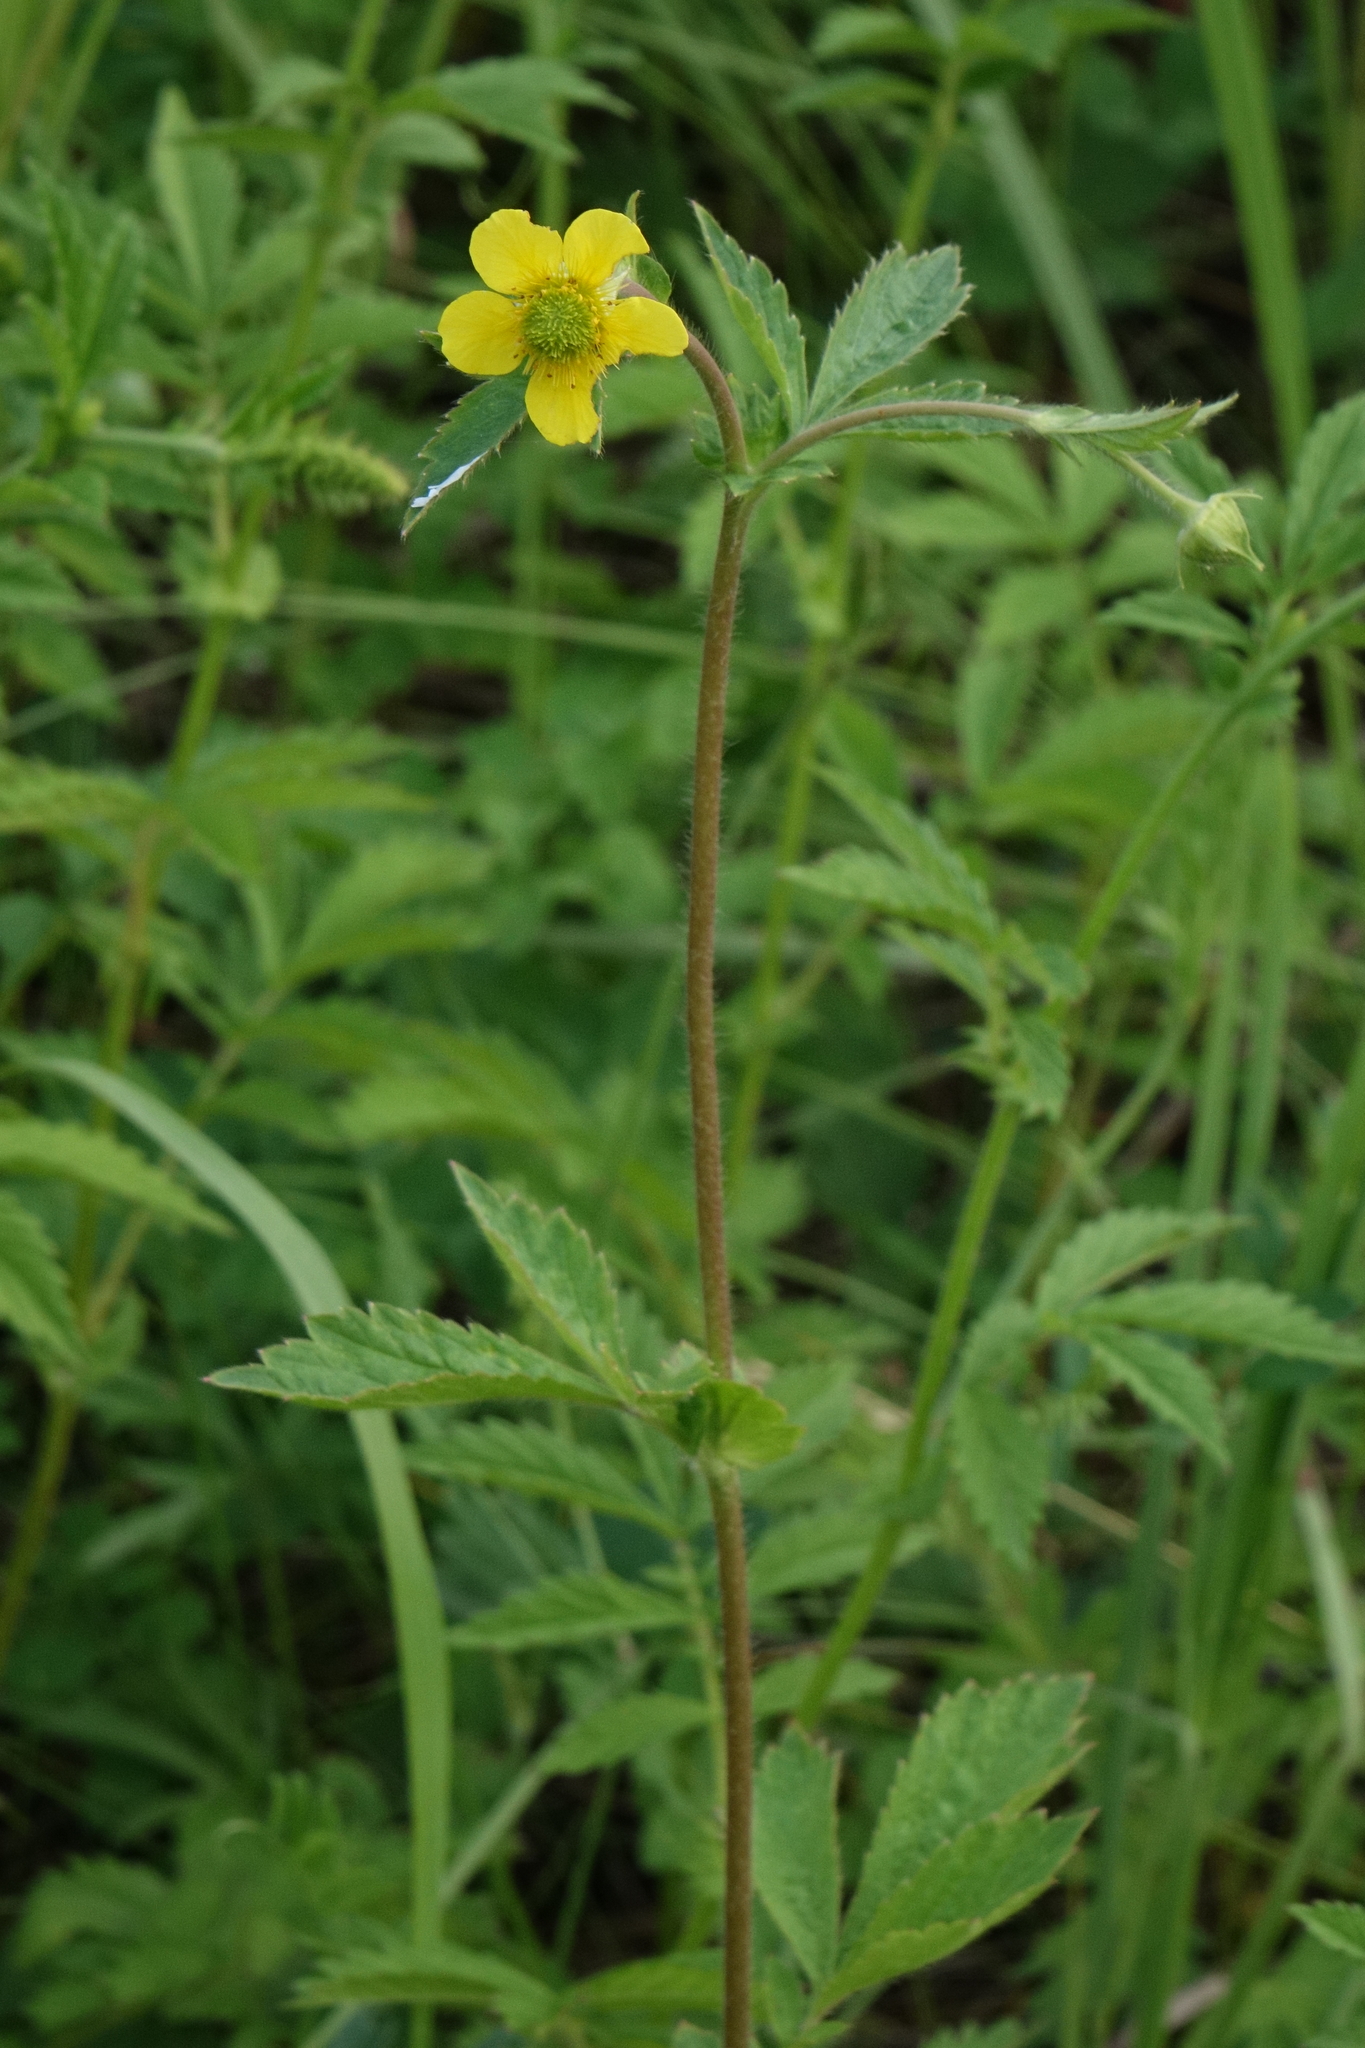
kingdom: Plantae
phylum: Tracheophyta
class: Magnoliopsida
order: Rosales
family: Rosaceae
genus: Geum
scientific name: Geum aleppicum
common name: Yellow avens
